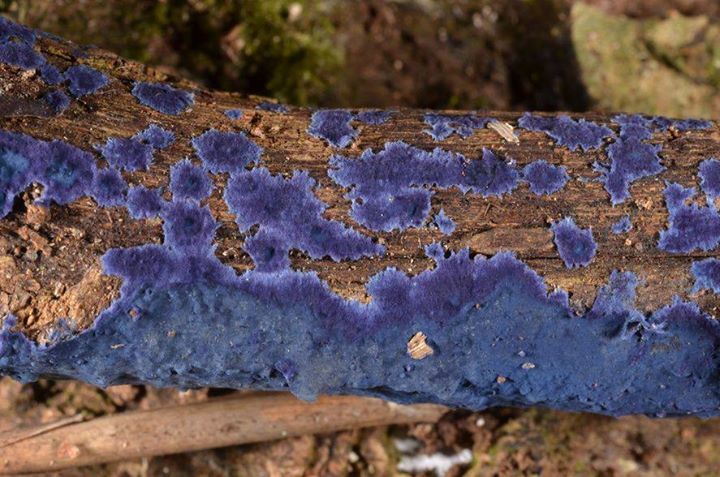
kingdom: Fungi
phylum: Basidiomycota
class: Agaricomycetes
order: Polyporales
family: Phanerochaetaceae
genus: Terana
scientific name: Terana coerulea
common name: Cobalt crust
